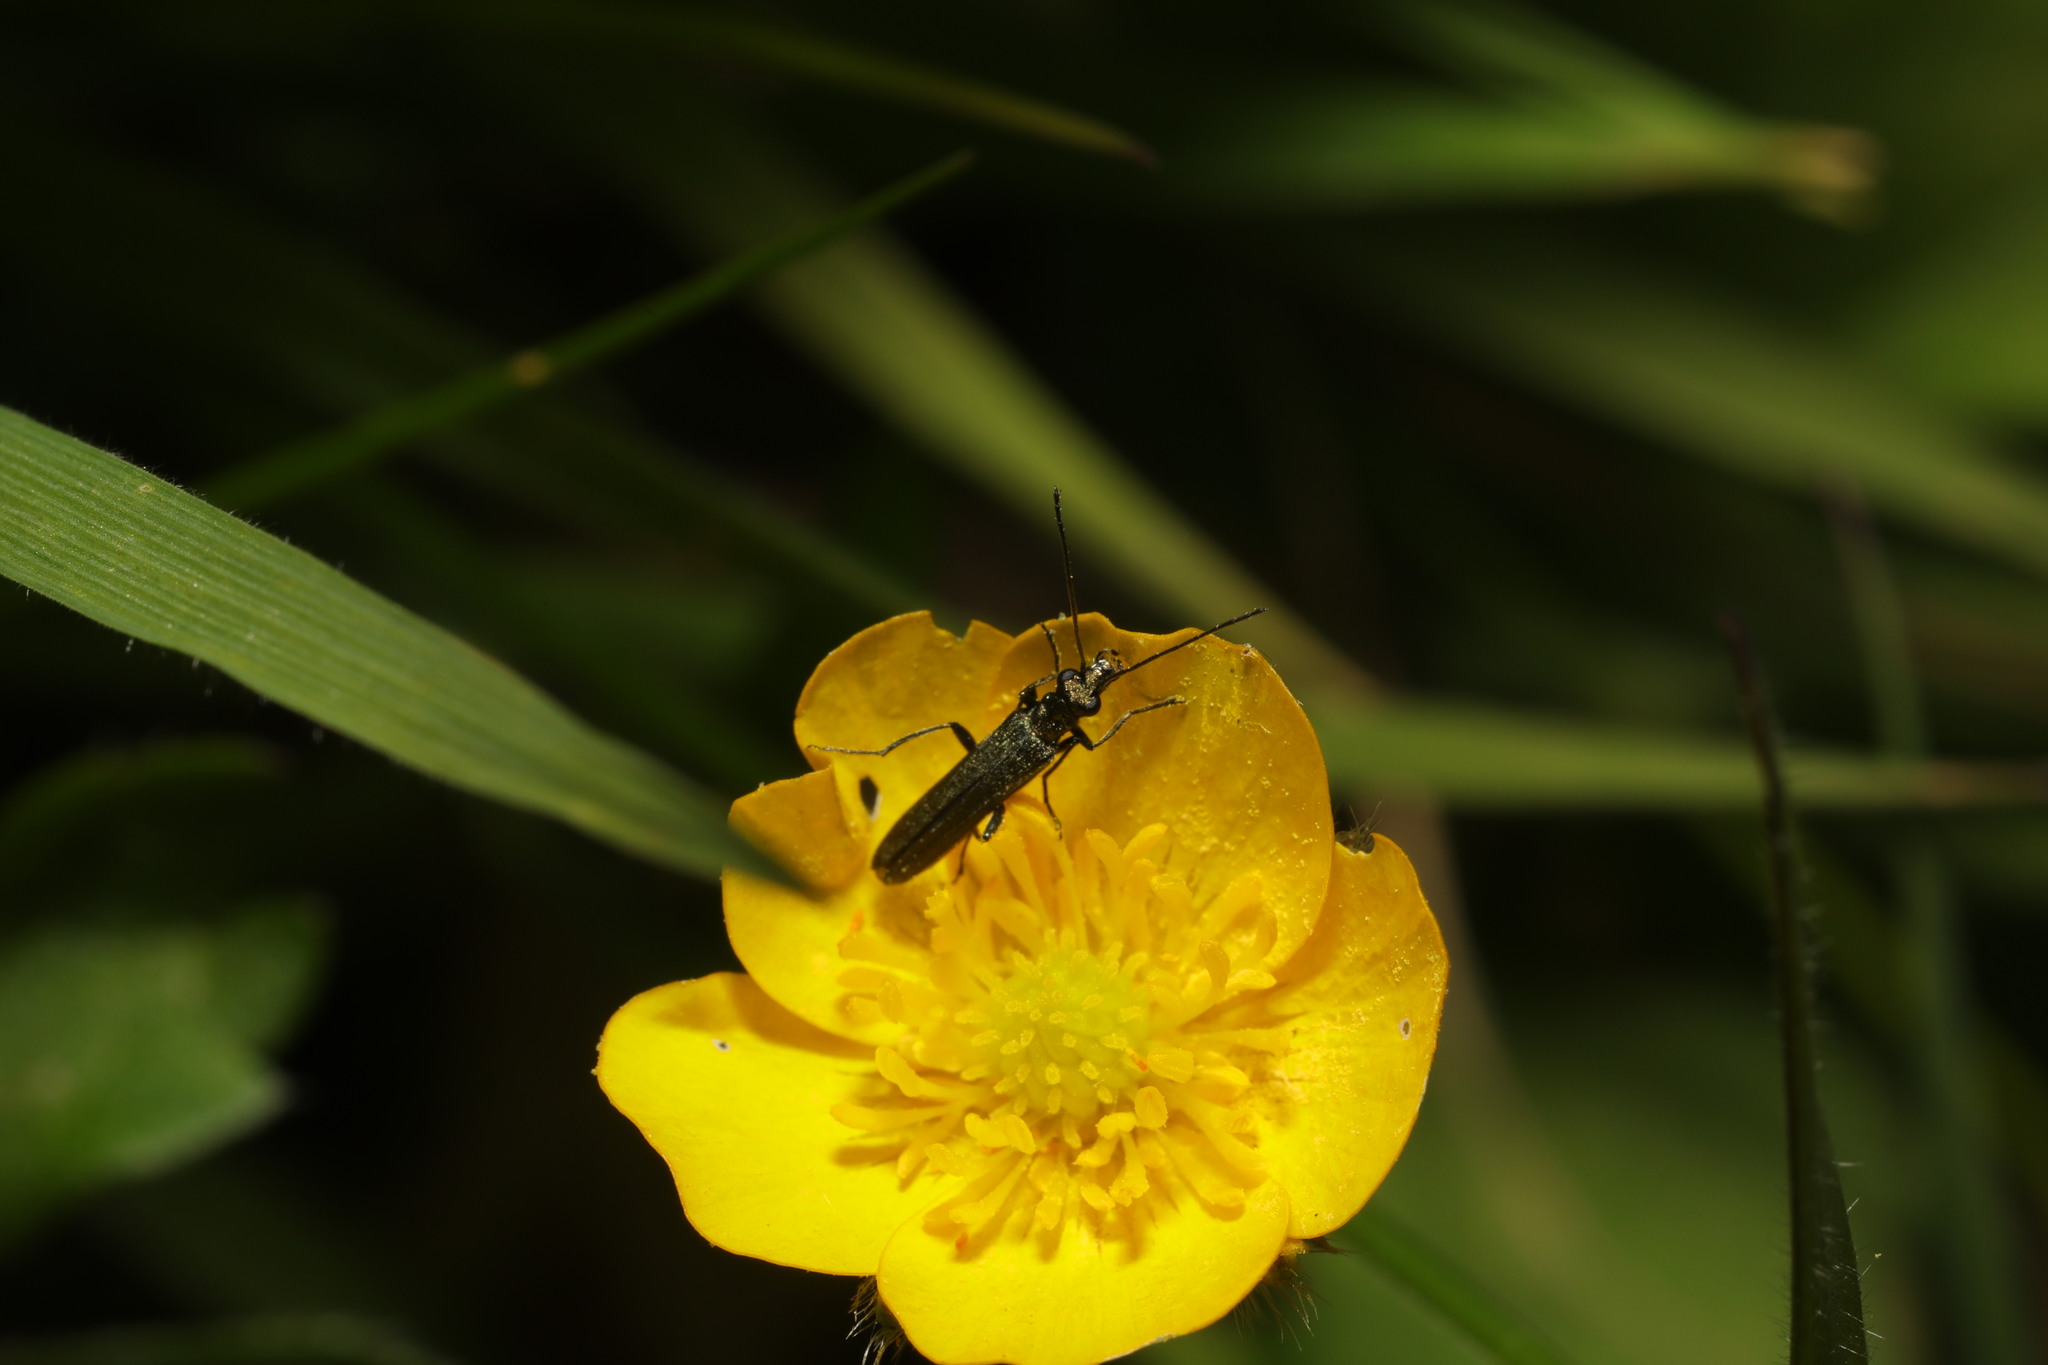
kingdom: Animalia
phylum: Arthropoda
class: Insecta
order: Coleoptera
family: Oedemeridae
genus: Oedemera
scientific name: Oedemera lurida
